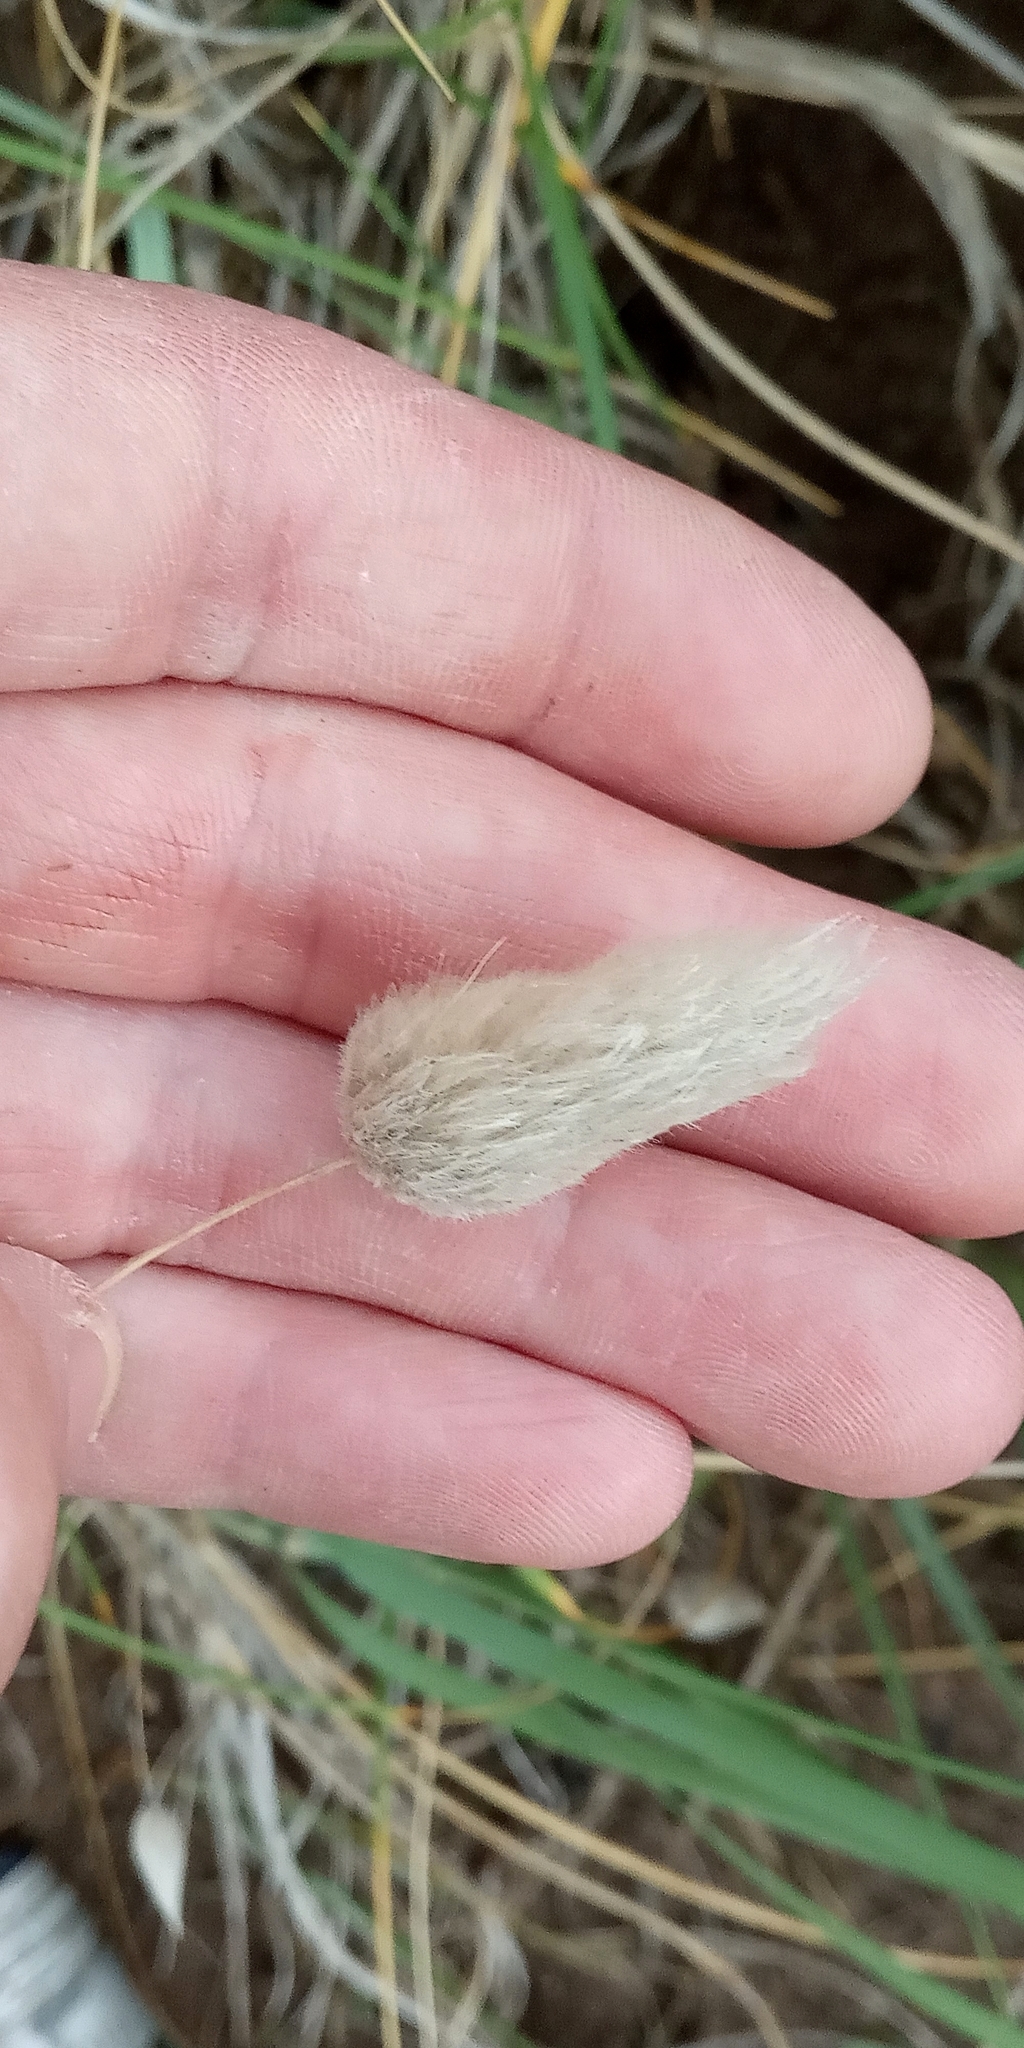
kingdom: Plantae
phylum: Tracheophyta
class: Liliopsida
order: Poales
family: Poaceae
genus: Lagurus
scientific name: Lagurus ovatus
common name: Hare's-tail
